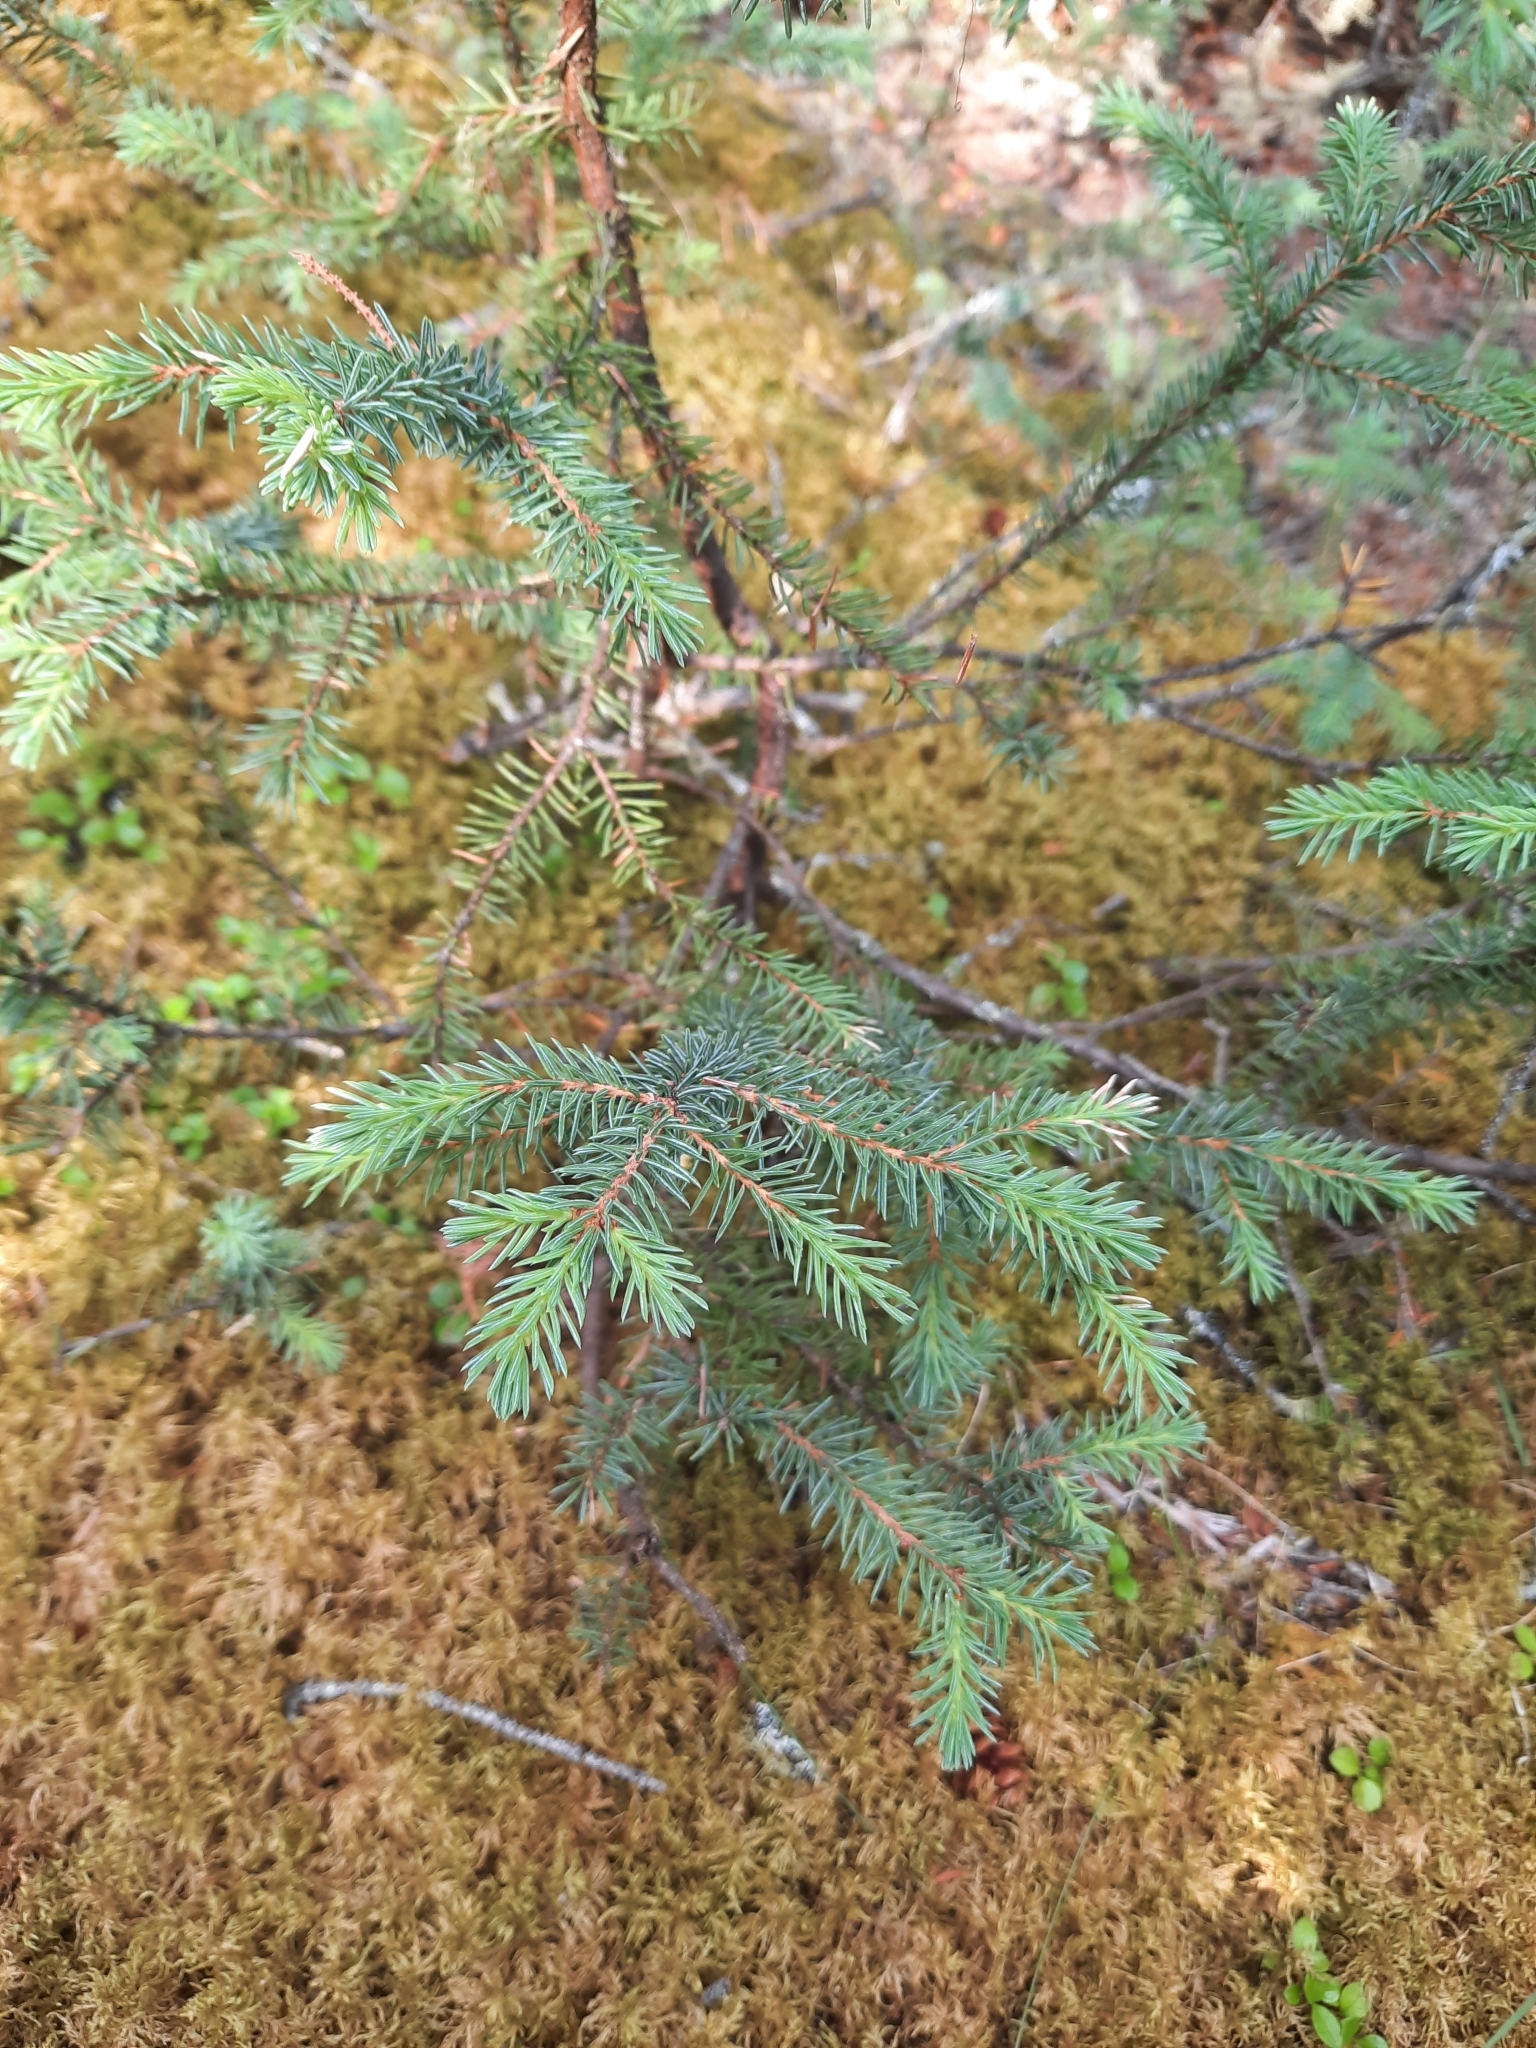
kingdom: Plantae
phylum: Tracheophyta
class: Pinopsida
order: Pinales
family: Pinaceae
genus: Picea
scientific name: Picea glauca
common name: White spruce
